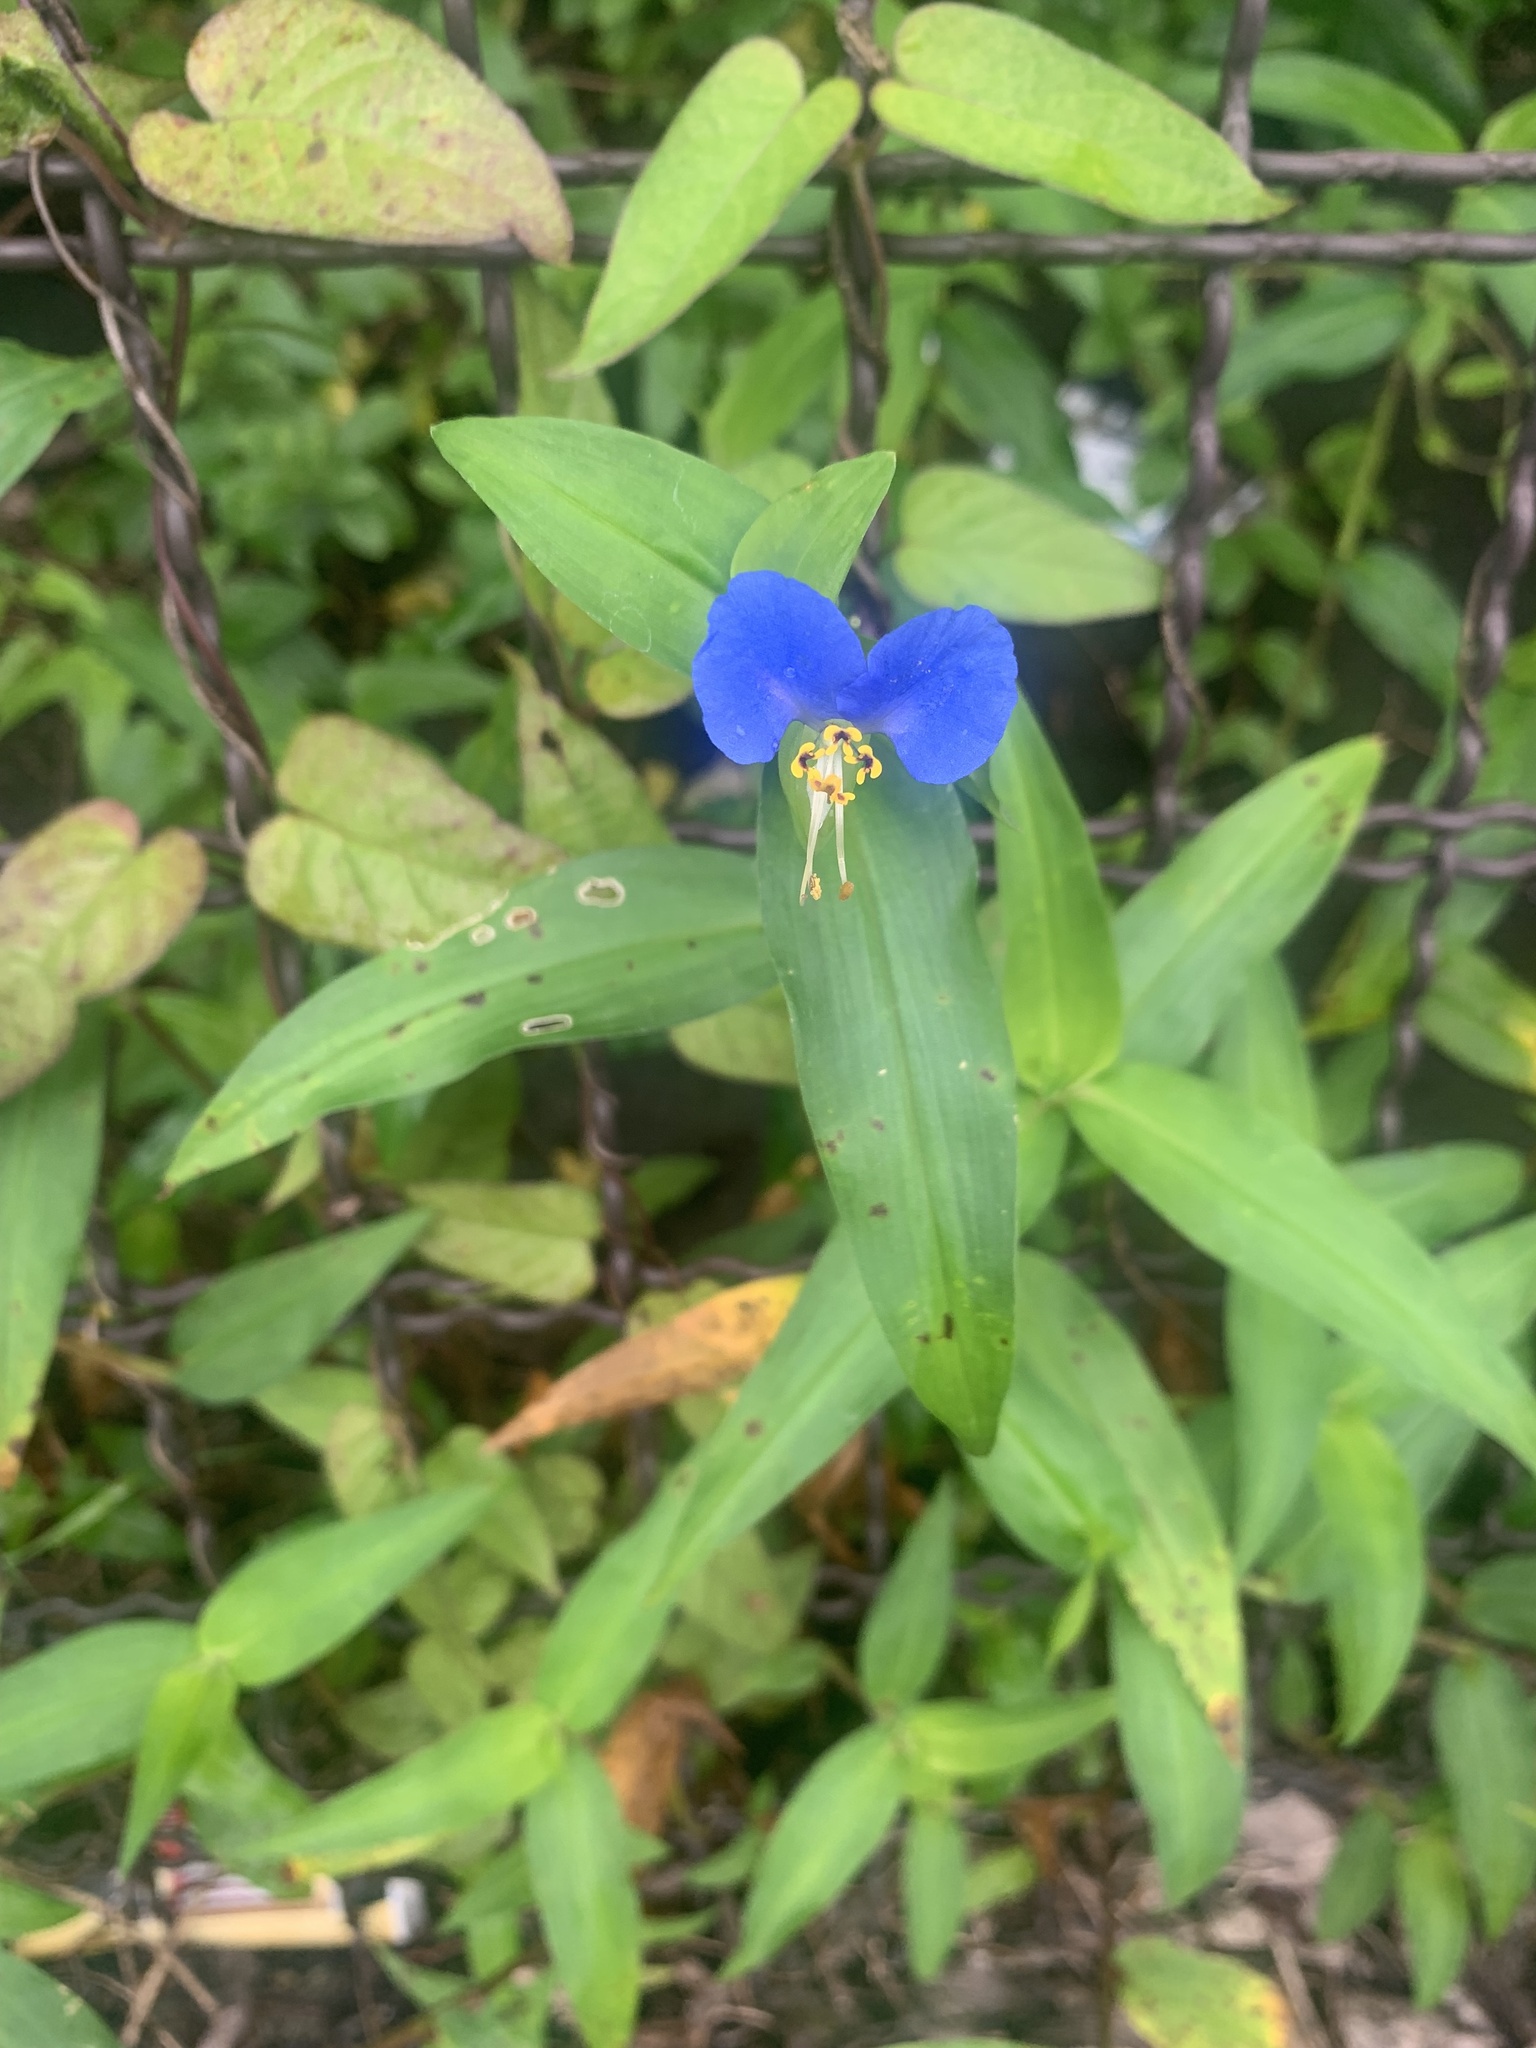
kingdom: Plantae
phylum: Tracheophyta
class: Liliopsida
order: Commelinales
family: Commelinaceae
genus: Commelina
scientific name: Commelina communis
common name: Asiatic dayflower
